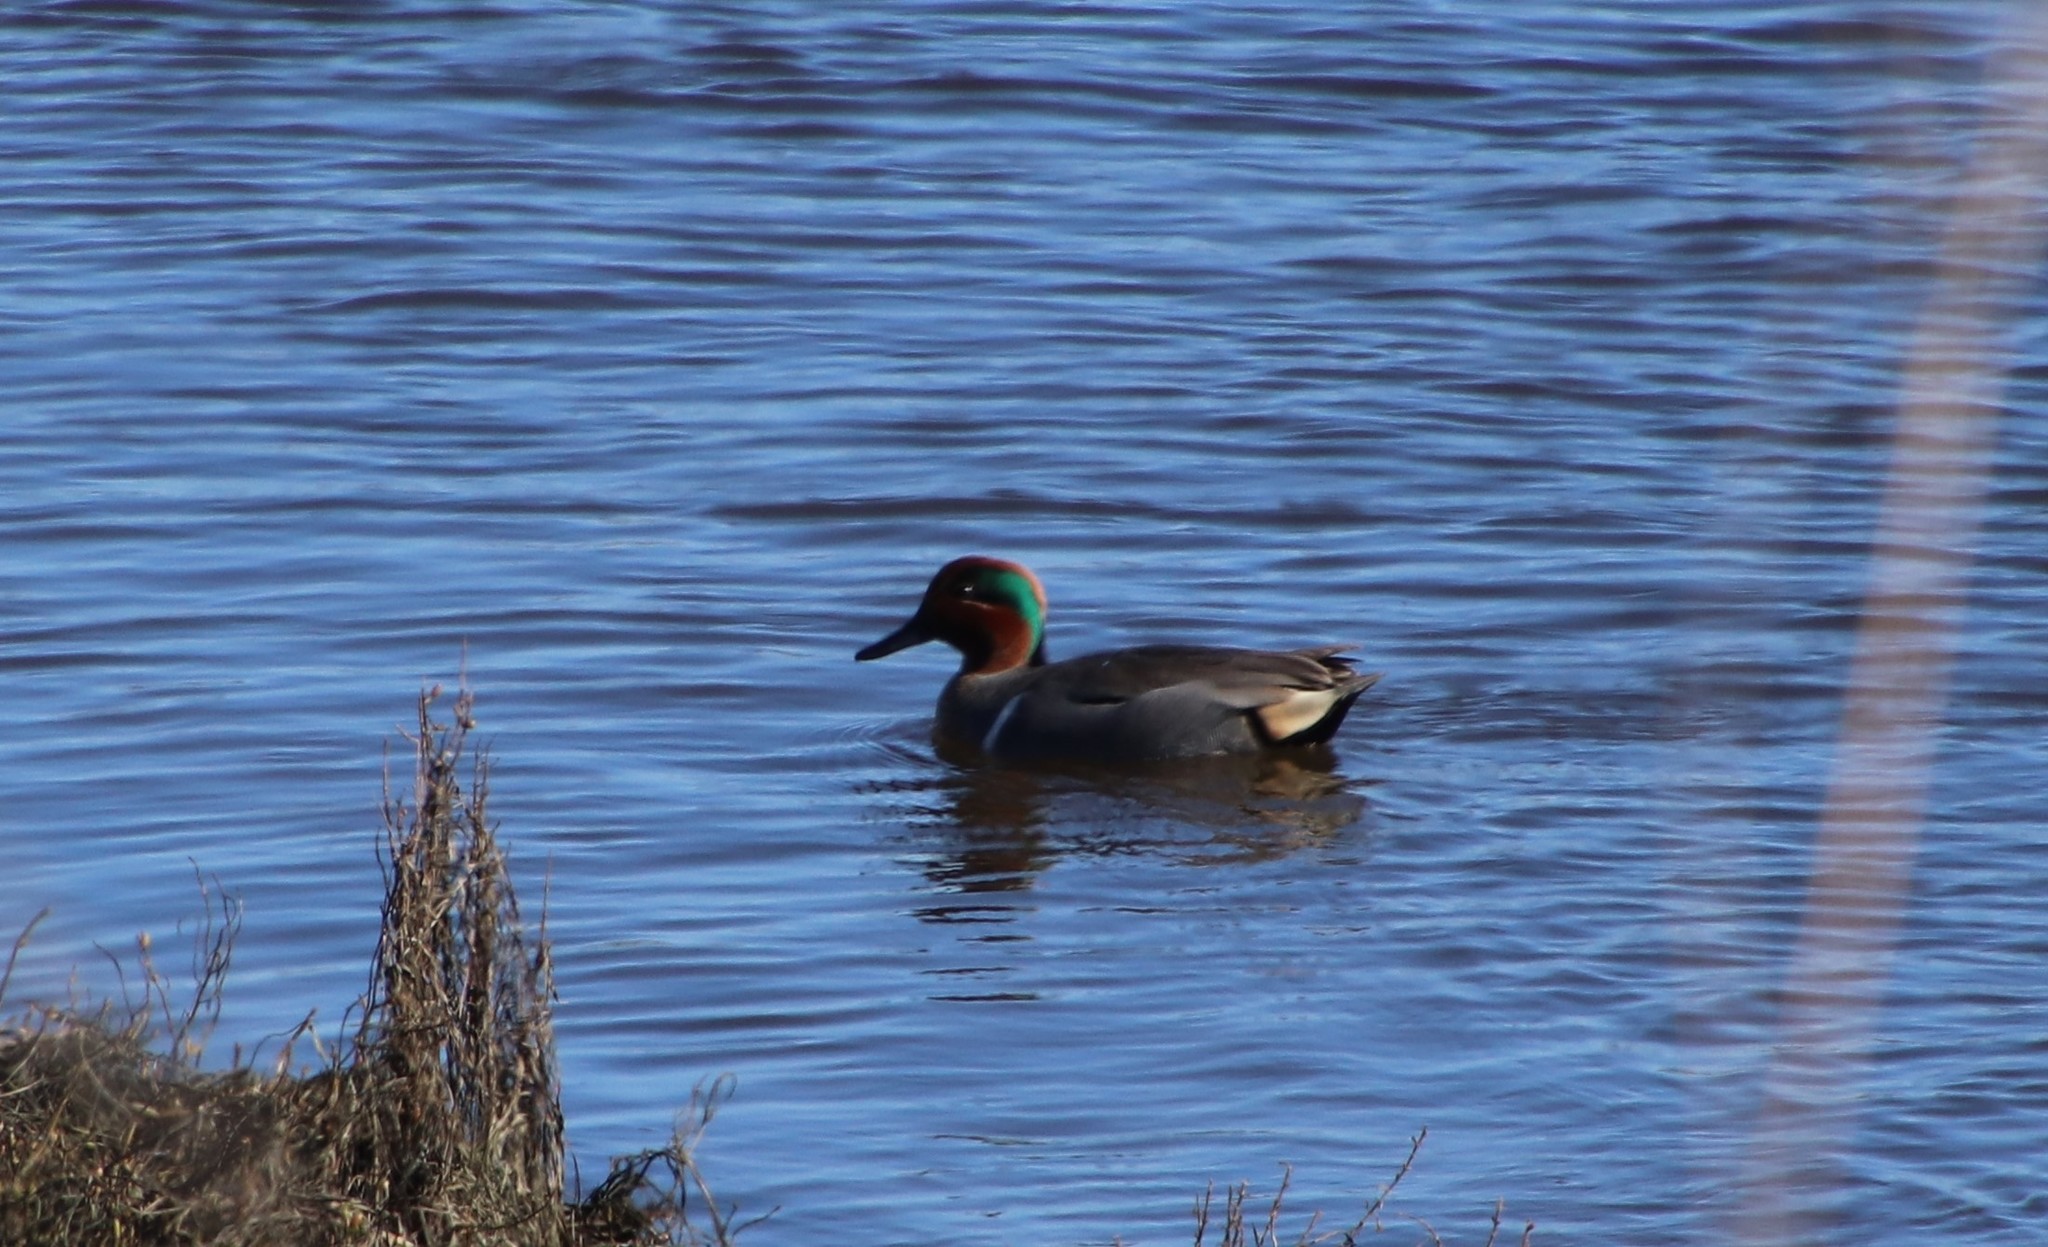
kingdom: Animalia
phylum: Chordata
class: Aves
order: Anseriformes
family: Anatidae
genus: Anas
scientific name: Anas crecca
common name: Eurasian teal
